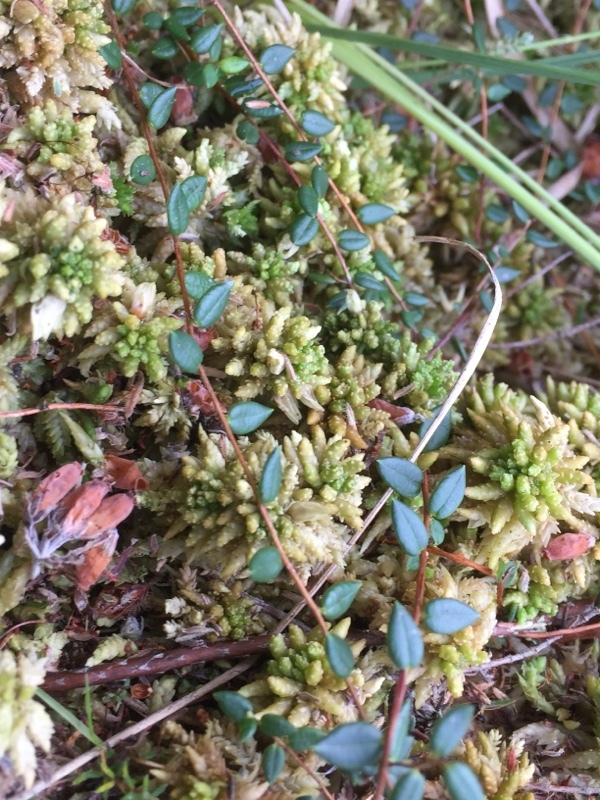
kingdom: Plantae
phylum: Tracheophyta
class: Magnoliopsida
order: Ericales
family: Ericaceae
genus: Vaccinium
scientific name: Vaccinium oxycoccos
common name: Cranberry
